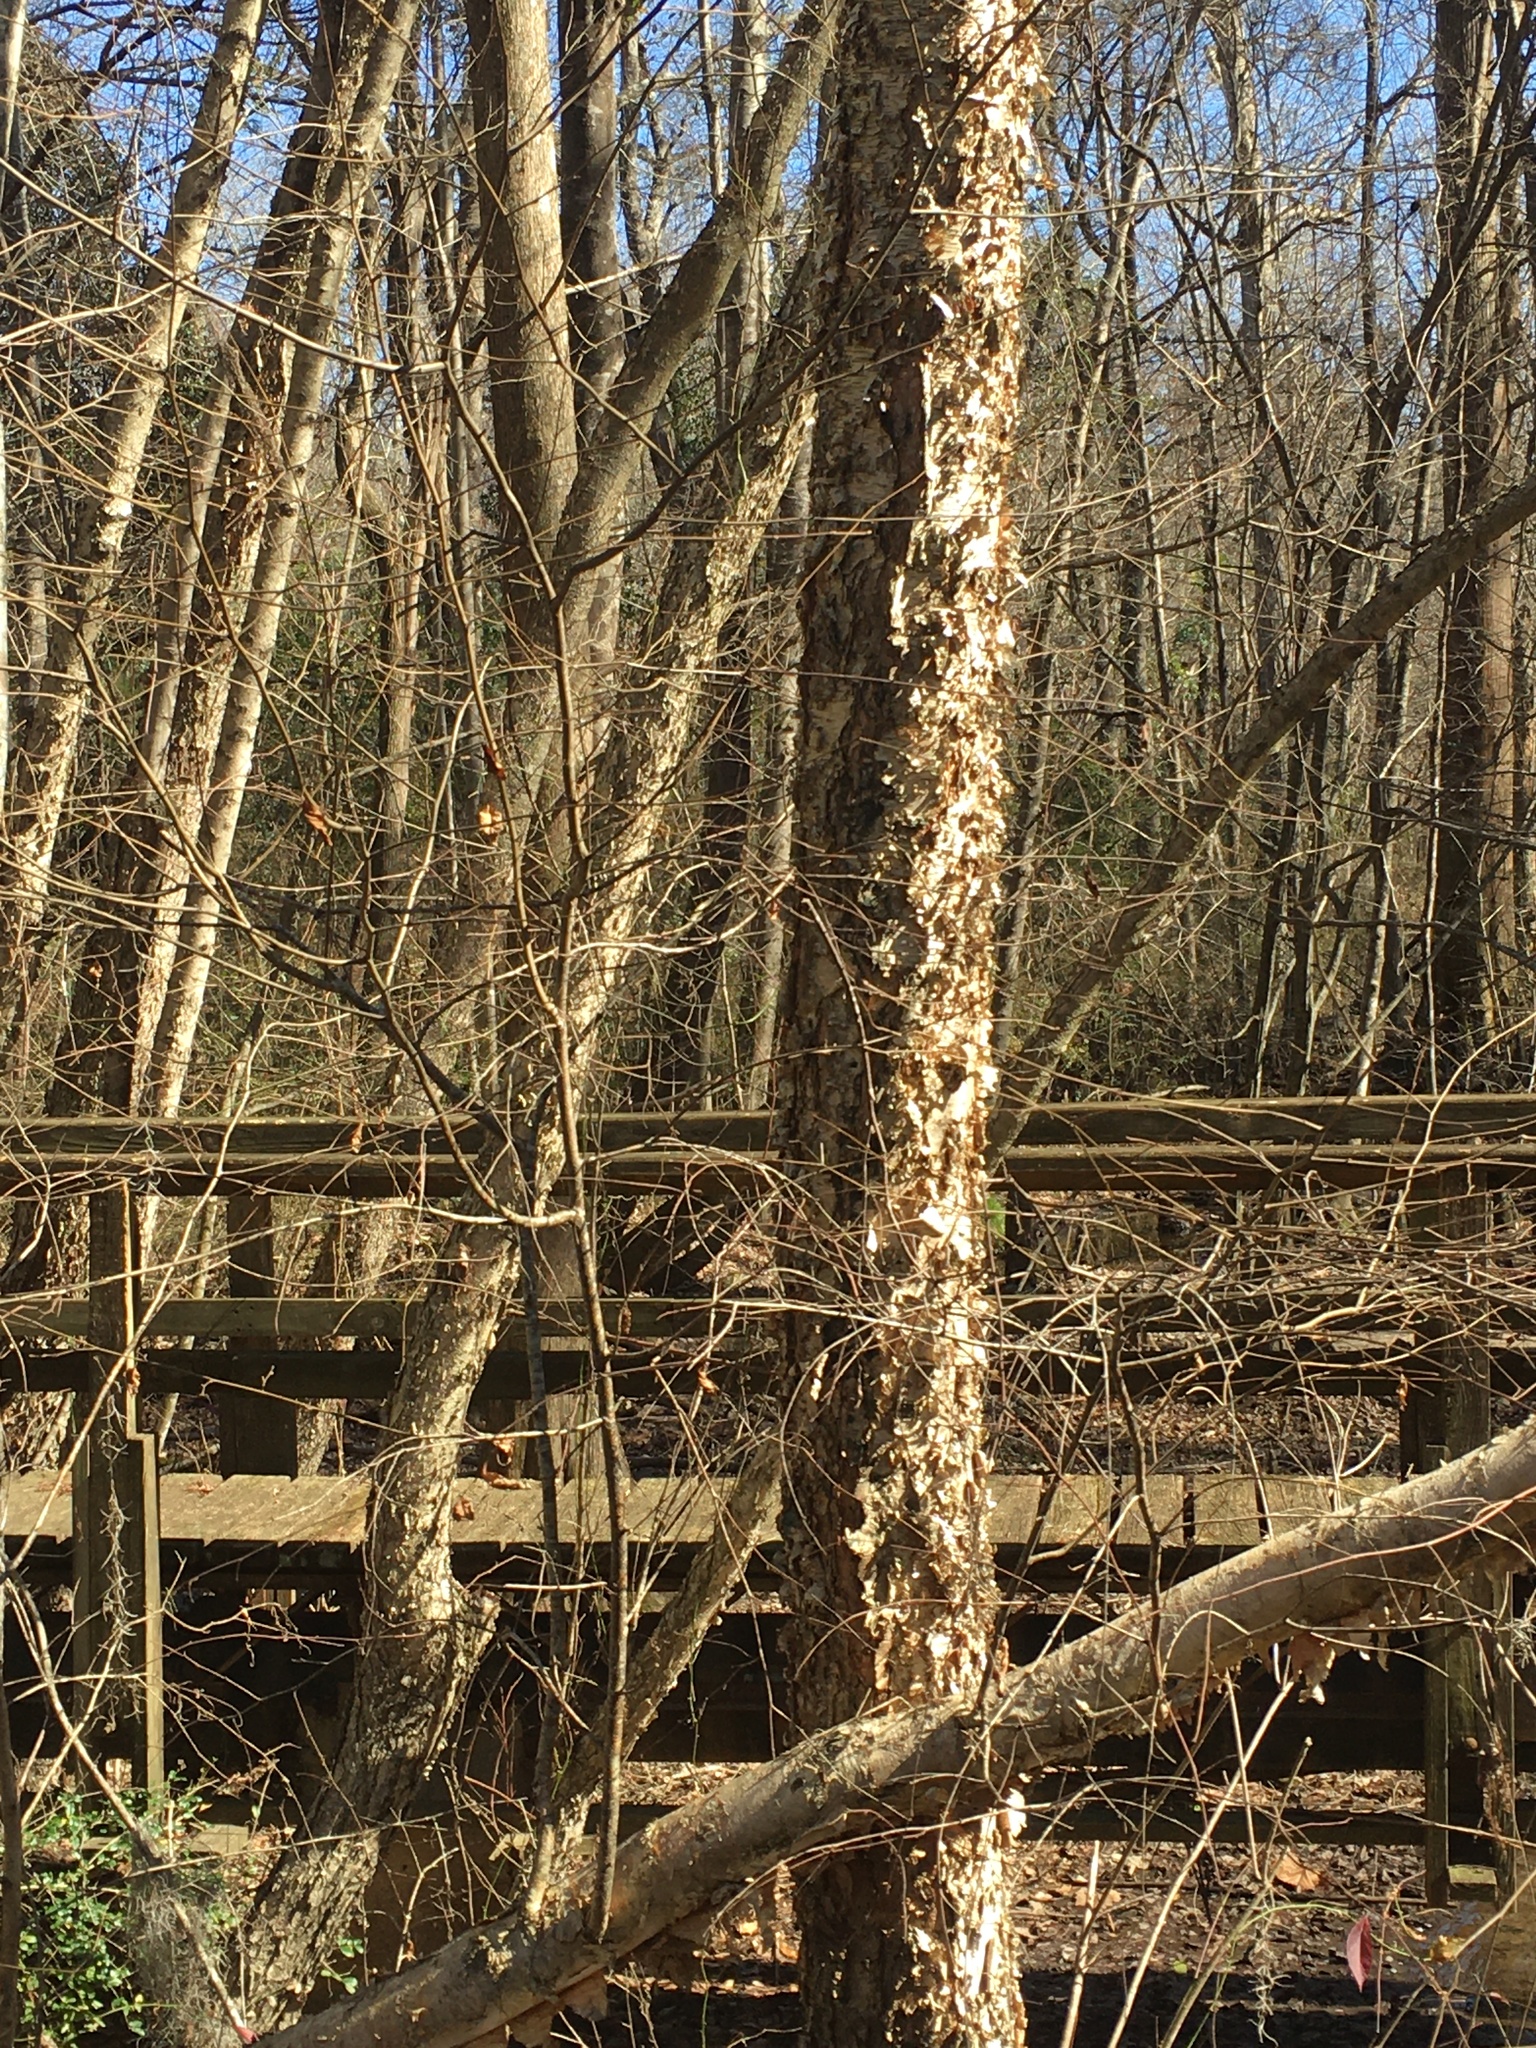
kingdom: Plantae
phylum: Tracheophyta
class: Magnoliopsida
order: Fagales
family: Betulaceae
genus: Betula
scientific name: Betula nigra
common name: Black birch
